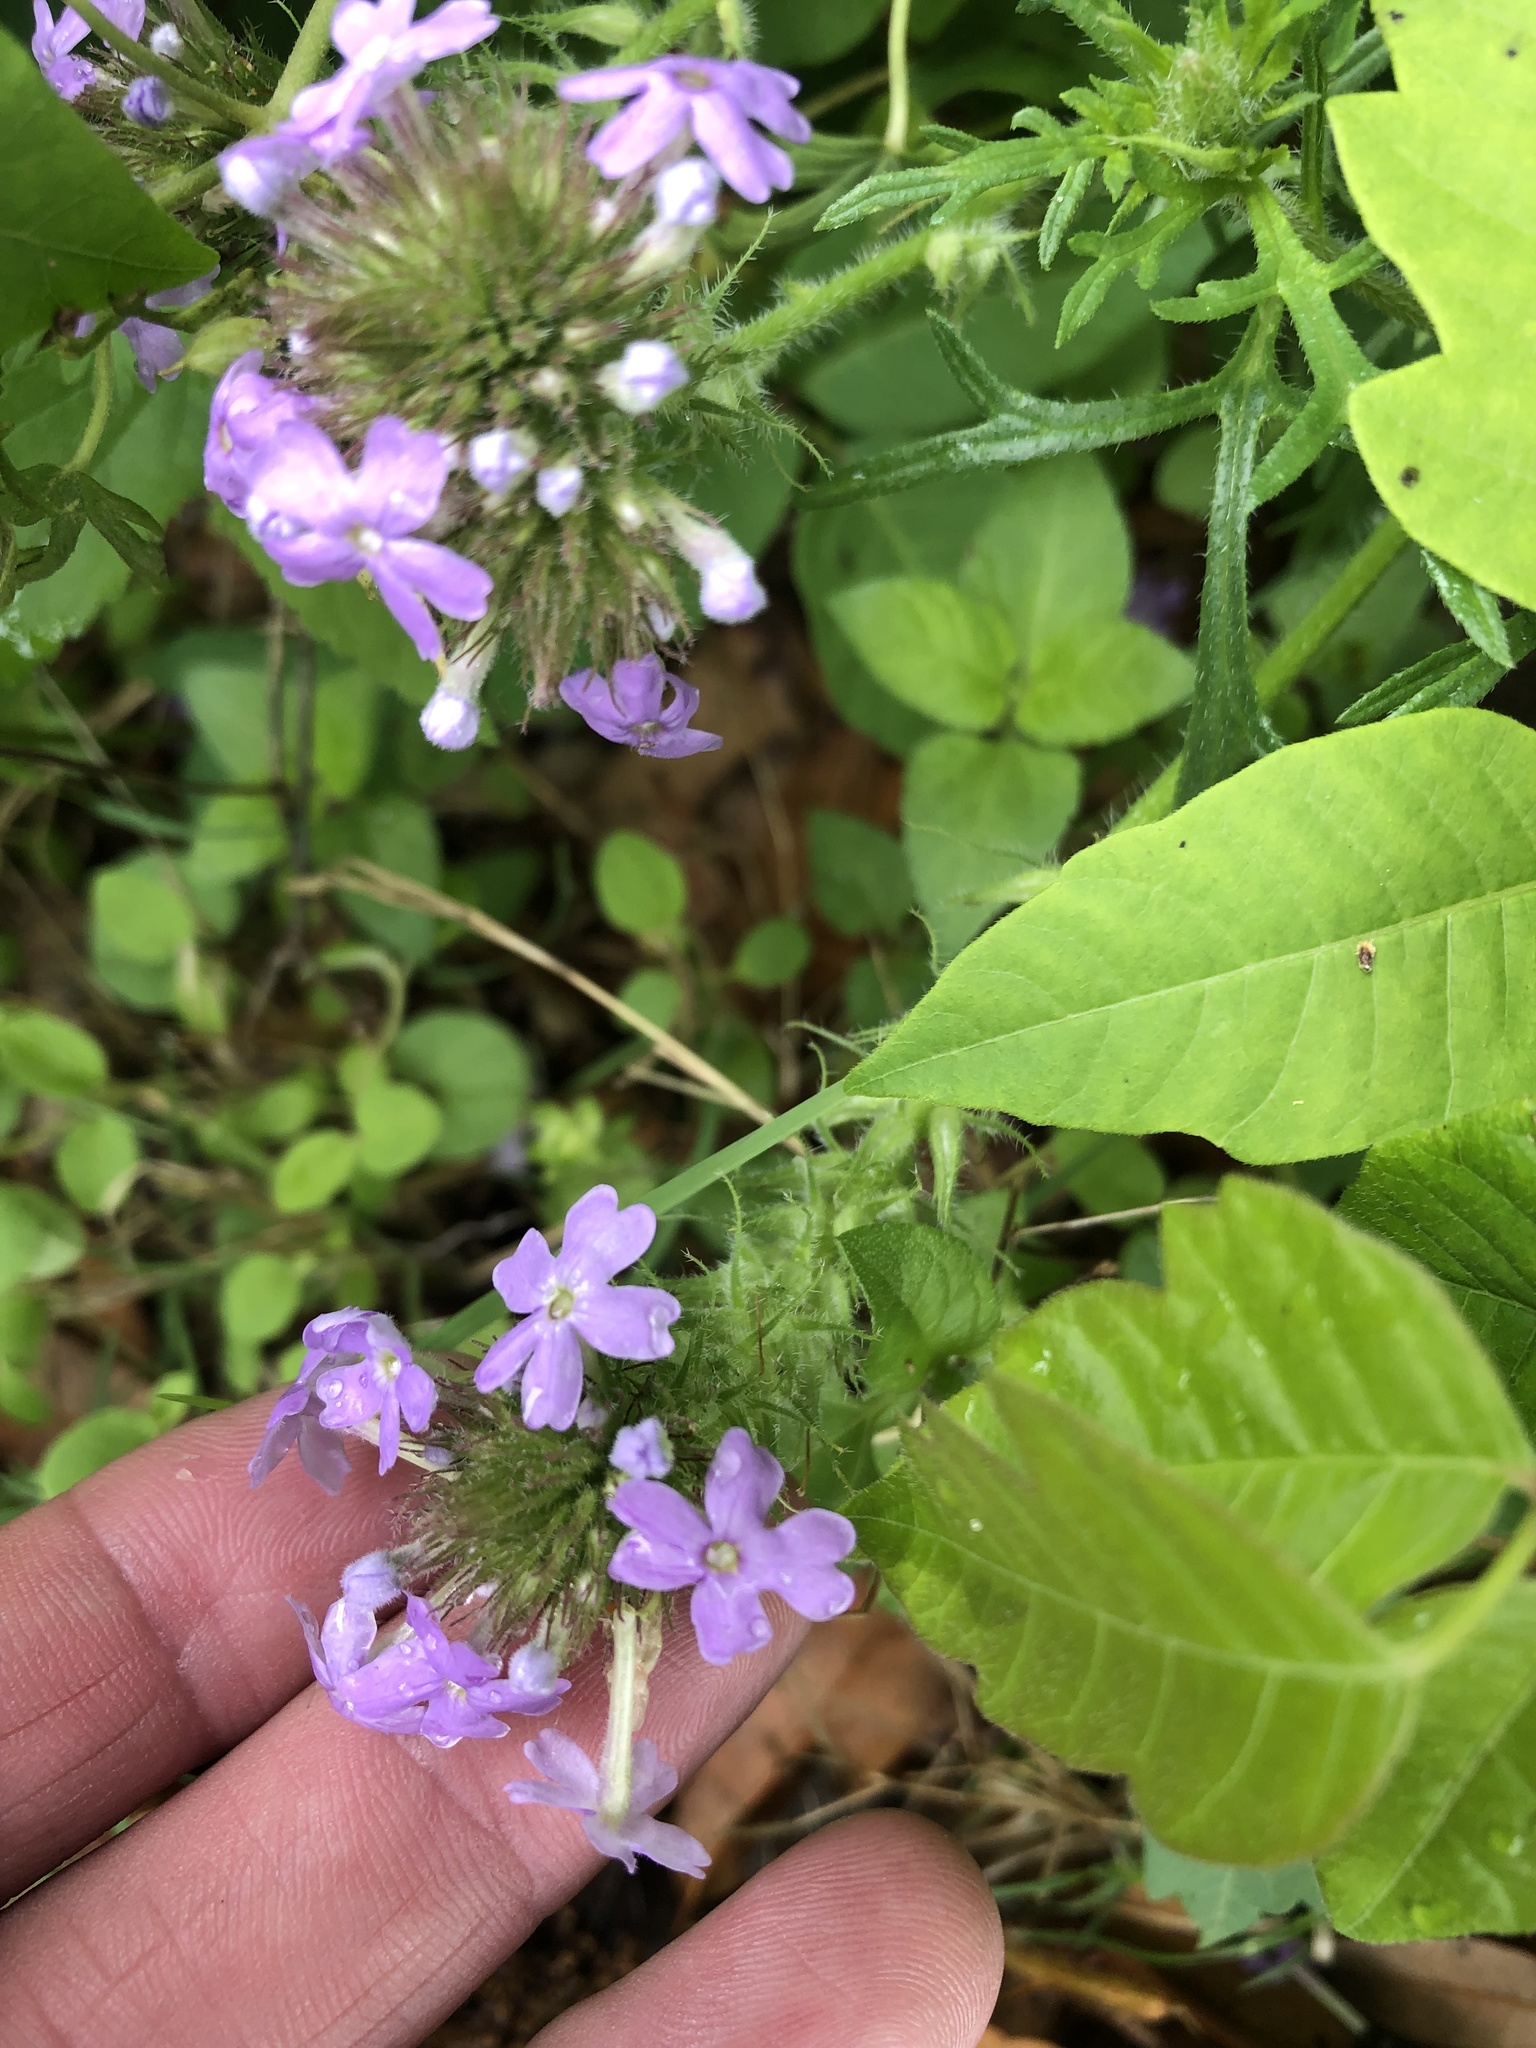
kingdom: Plantae
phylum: Tracheophyta
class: Magnoliopsida
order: Lamiales
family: Verbenaceae
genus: Verbena
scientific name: Verbena bipinnatifida
